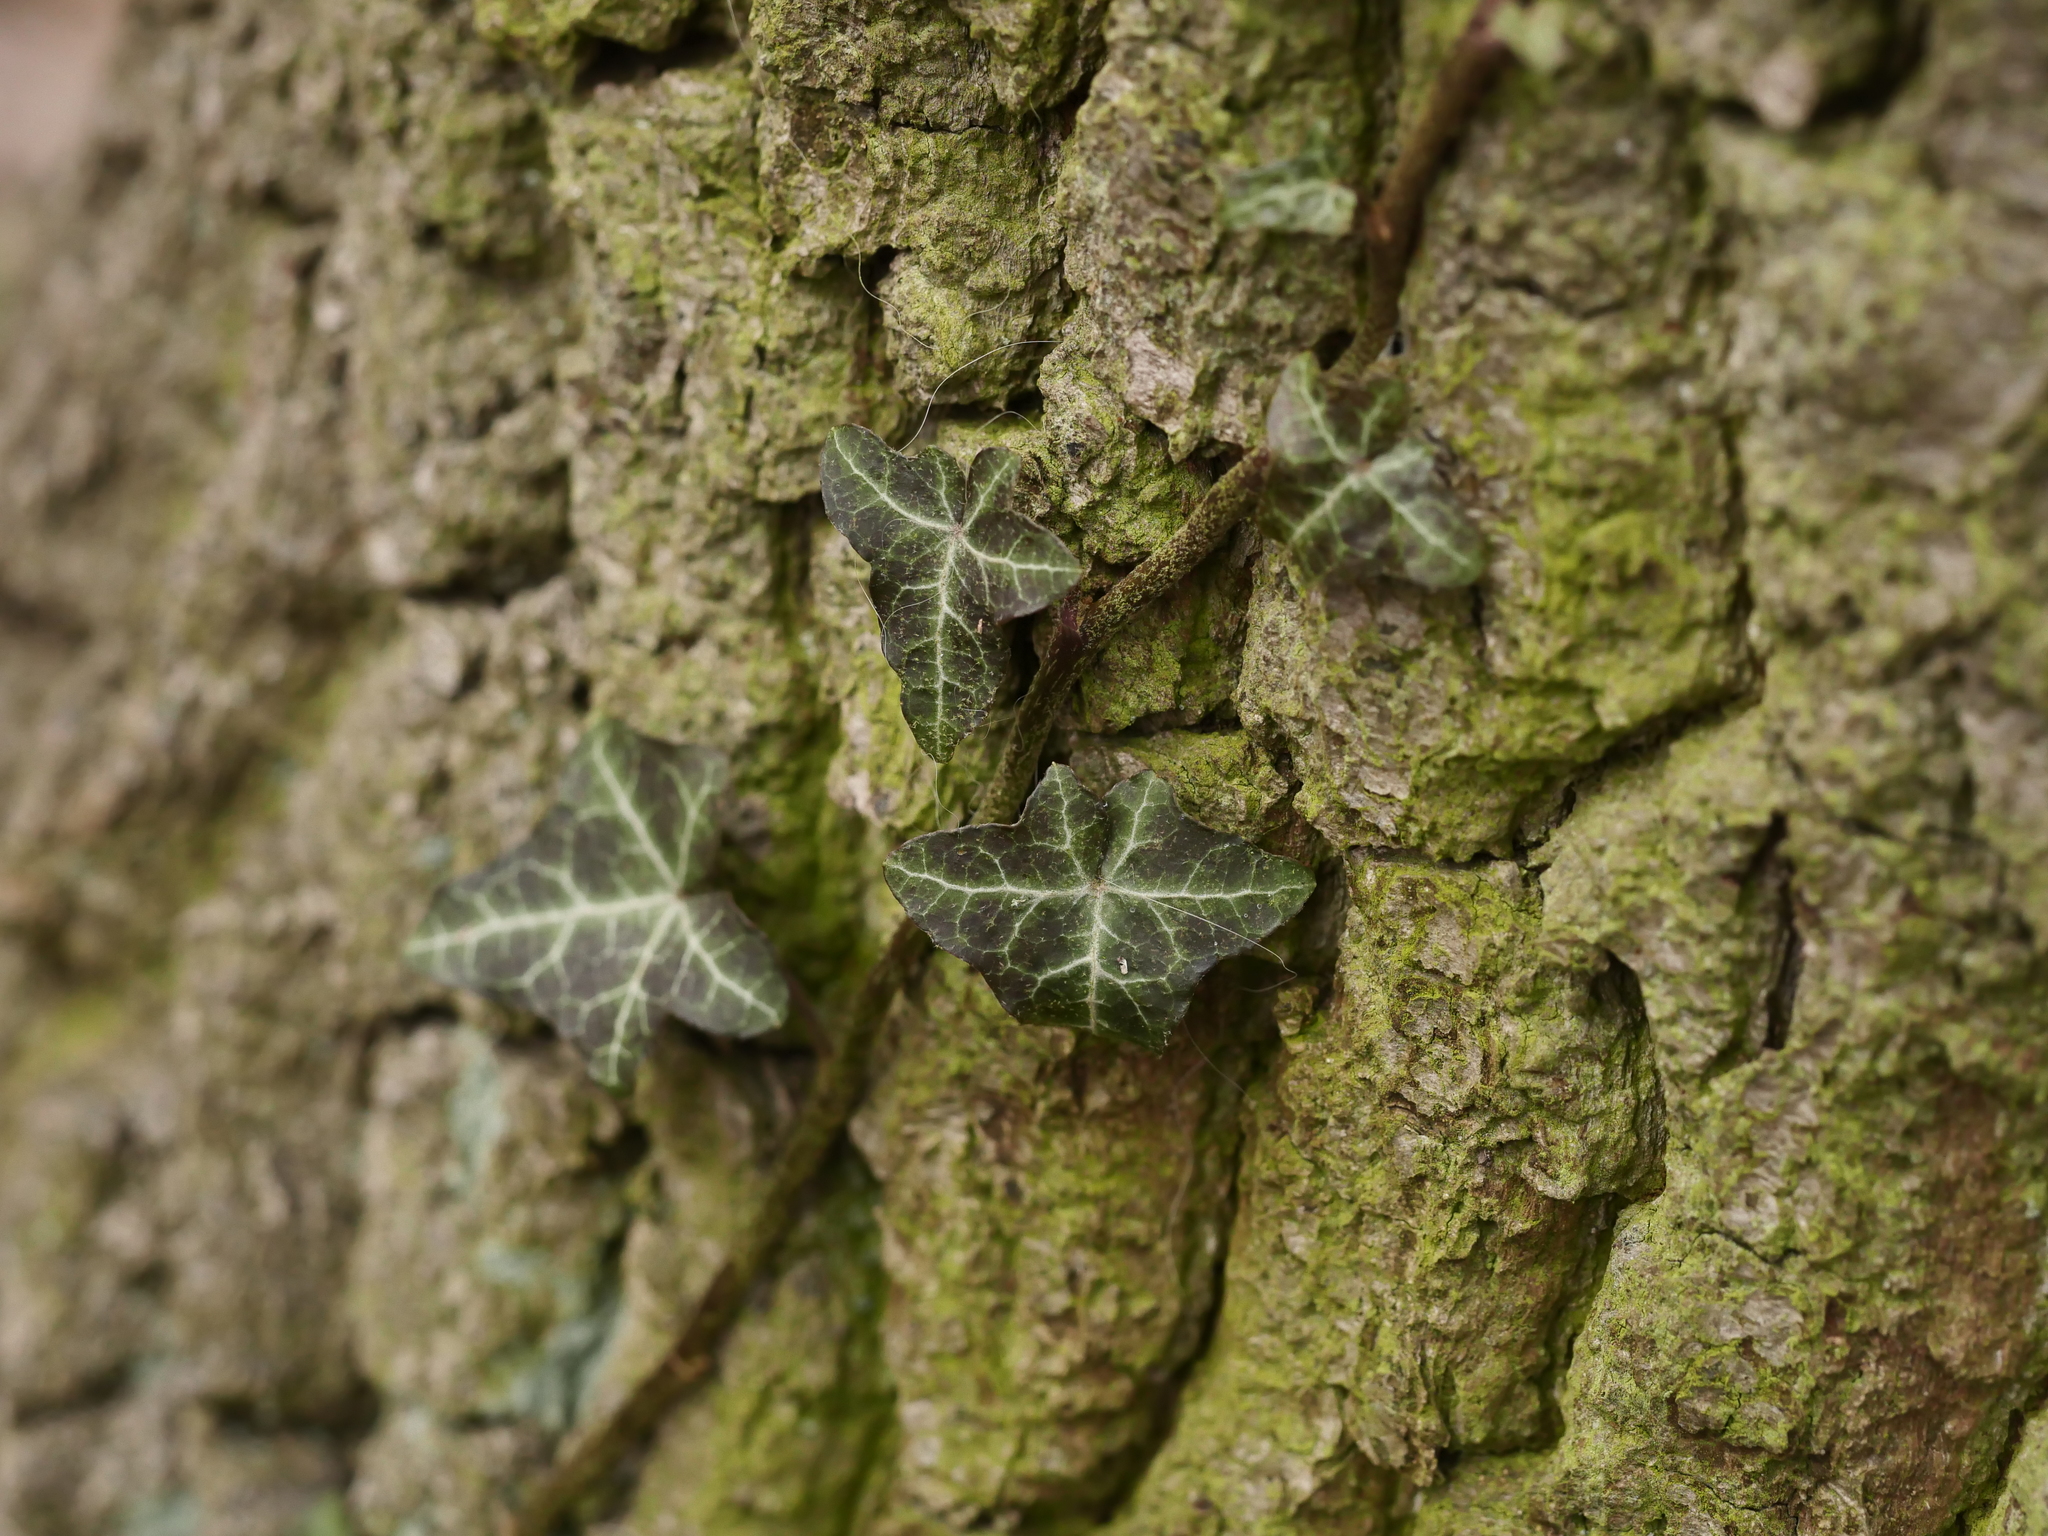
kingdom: Plantae
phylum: Tracheophyta
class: Magnoliopsida
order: Apiales
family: Araliaceae
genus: Hedera
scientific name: Hedera helix
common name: Ivy
